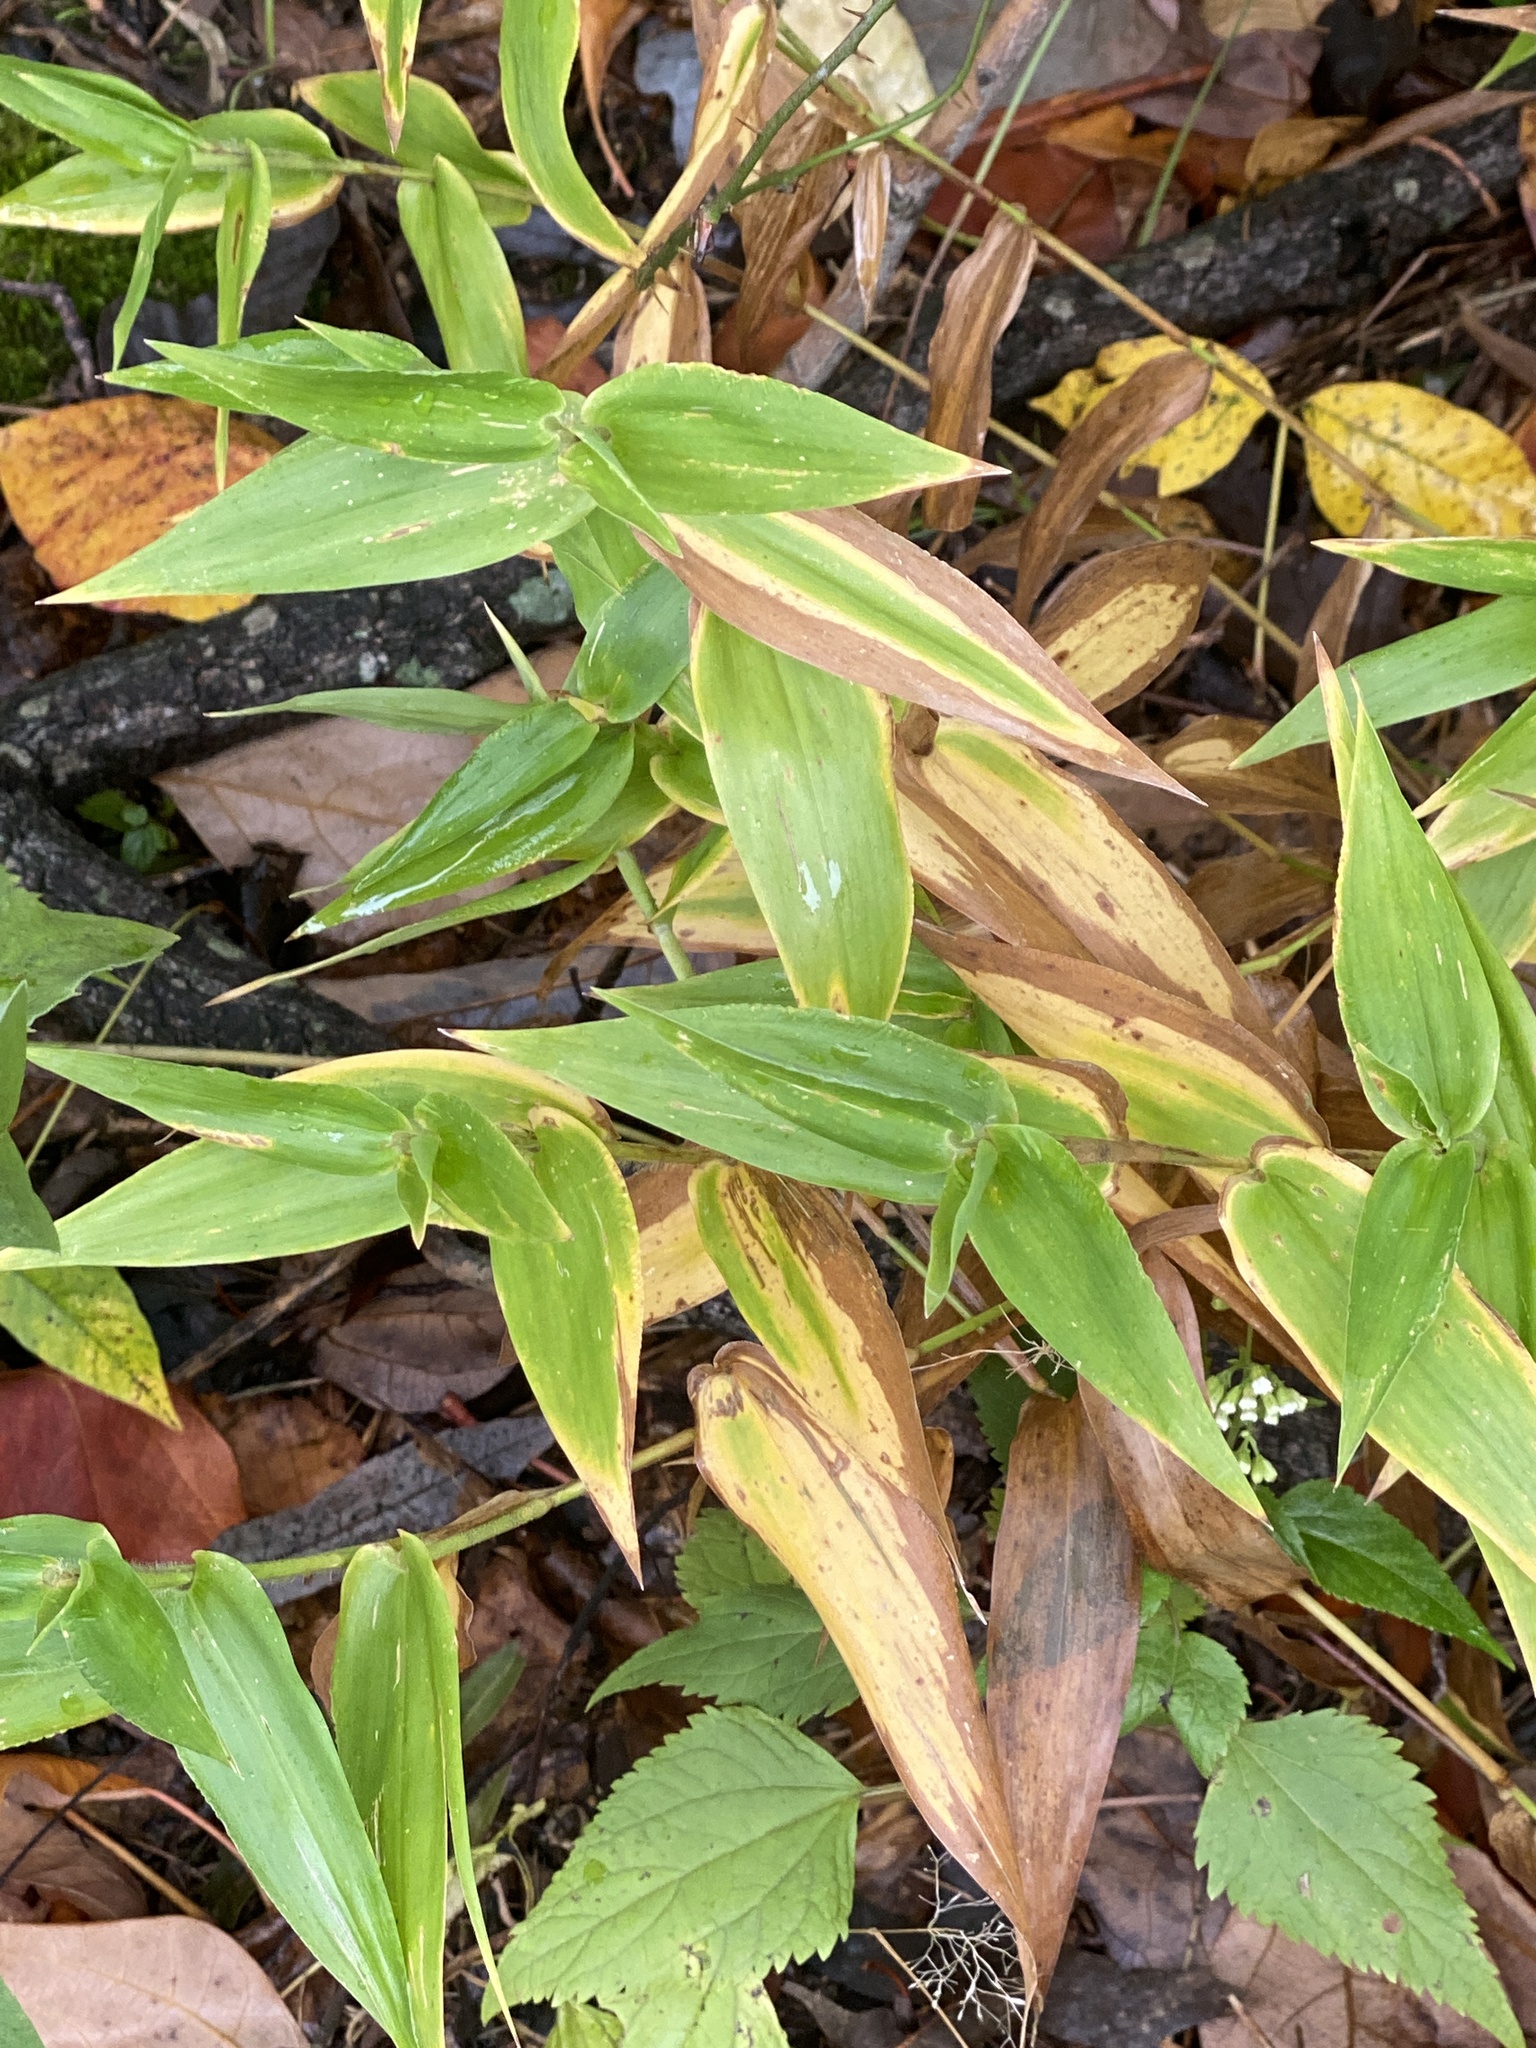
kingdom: Plantae
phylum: Tracheophyta
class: Liliopsida
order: Poales
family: Poaceae
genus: Dichanthelium
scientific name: Dichanthelium clandestinum
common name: Deer-tongue grass
